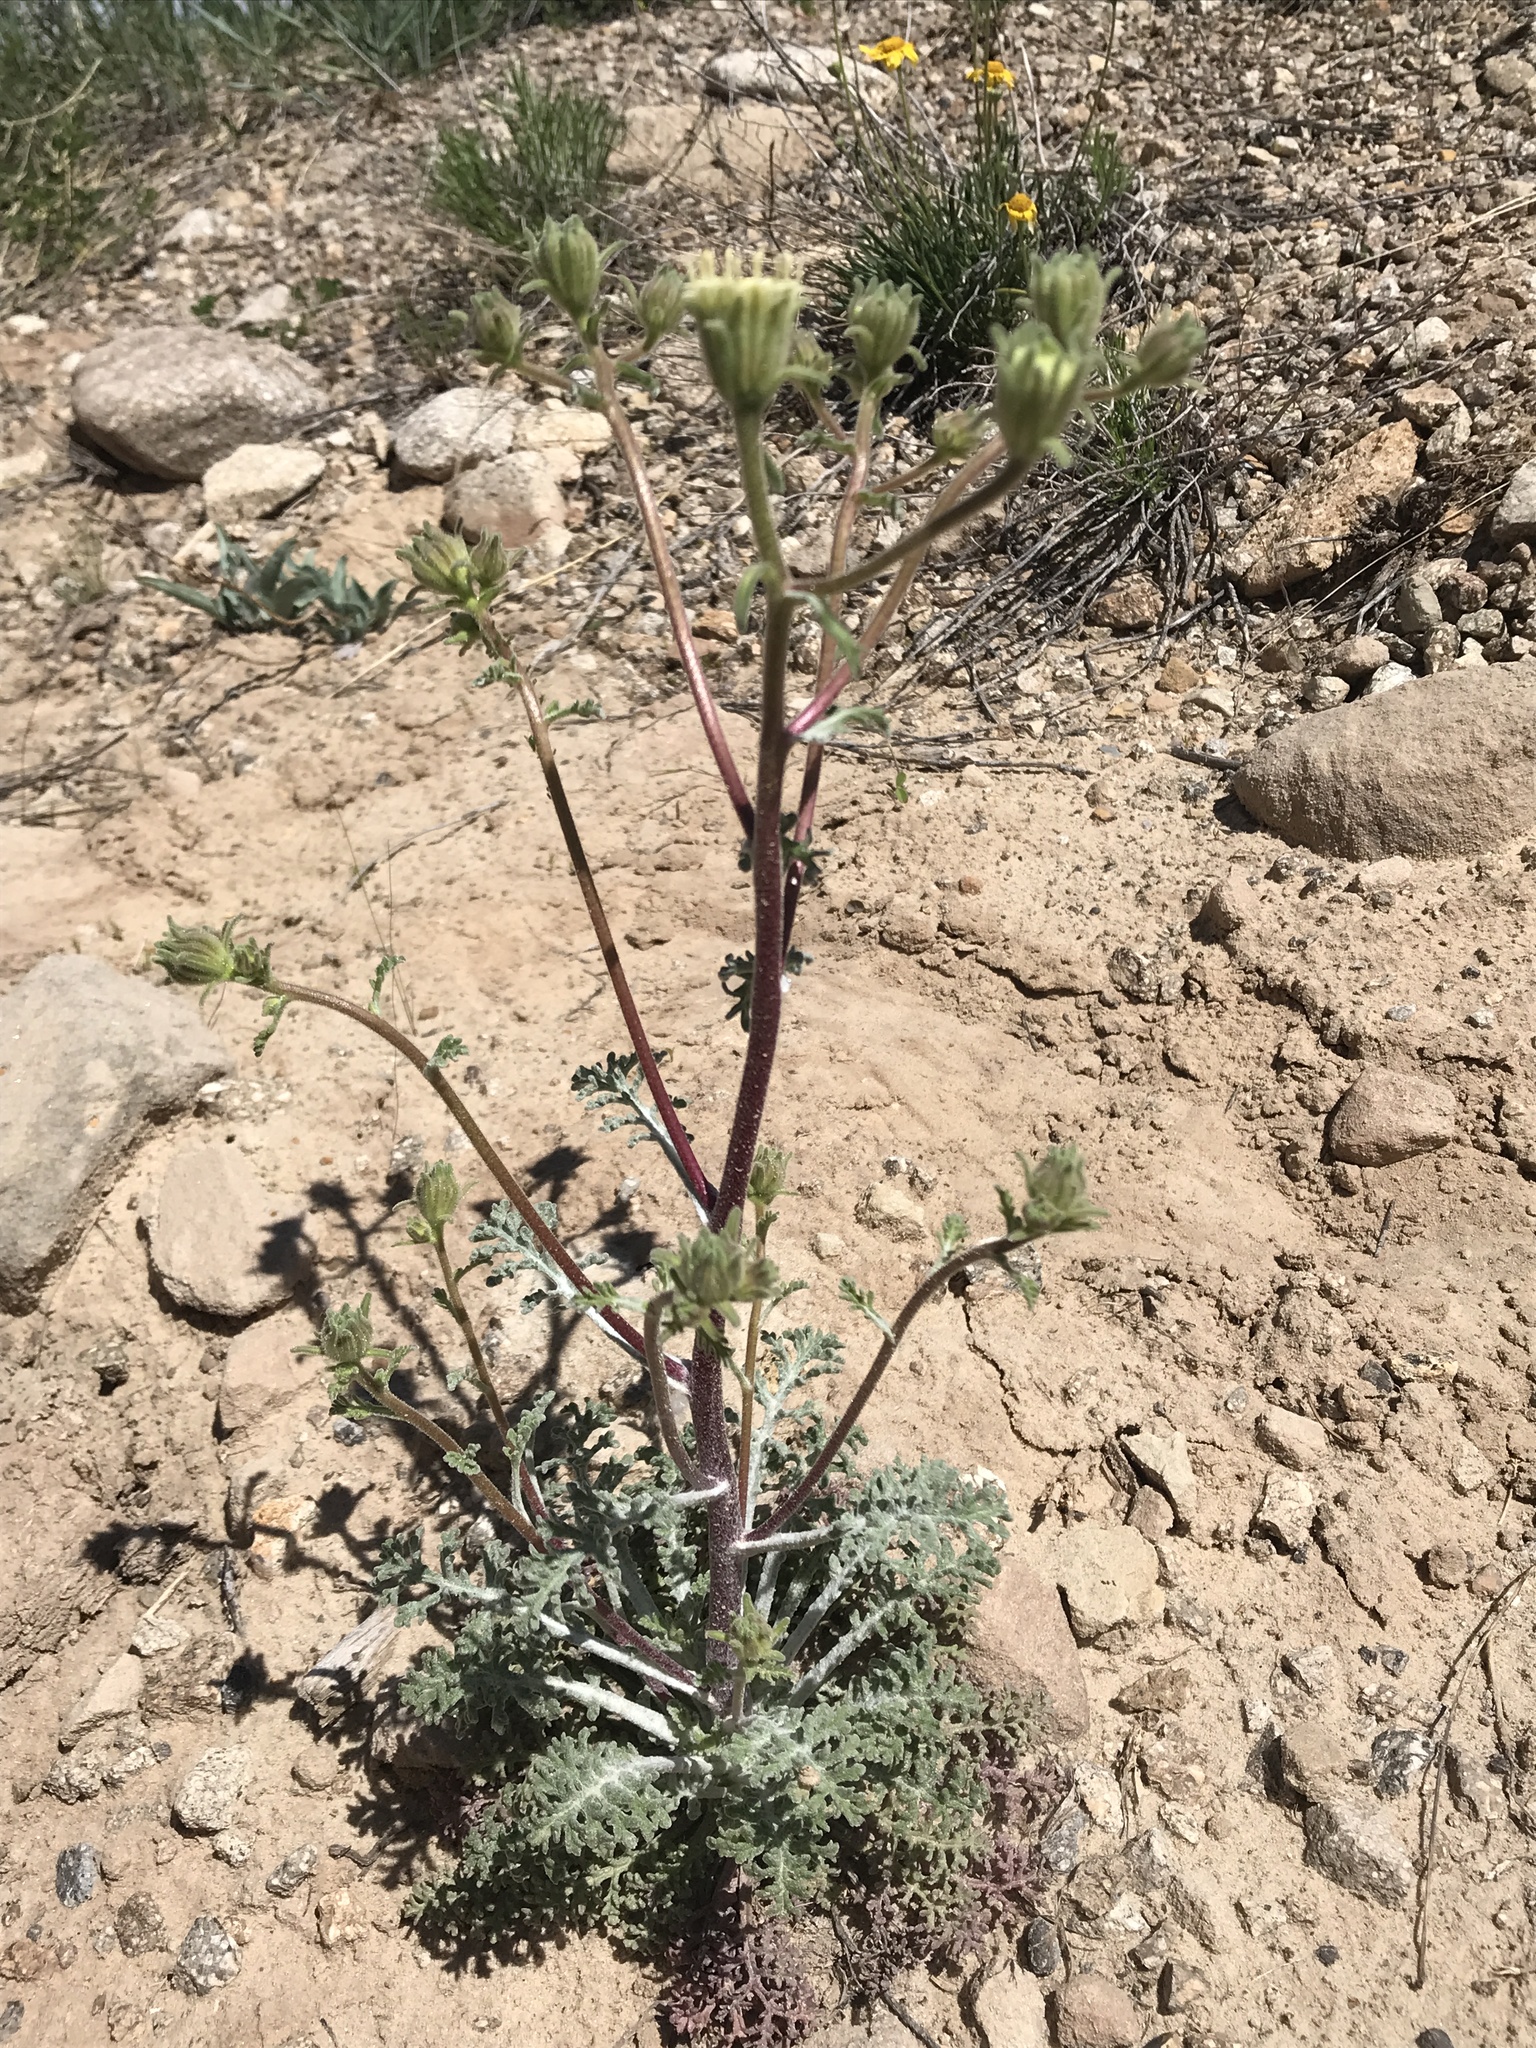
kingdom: Plantae
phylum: Tracheophyta
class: Magnoliopsida
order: Asterales
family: Asteraceae
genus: Chaenactis
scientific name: Chaenactis douglasii
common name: Hoary pincushion
